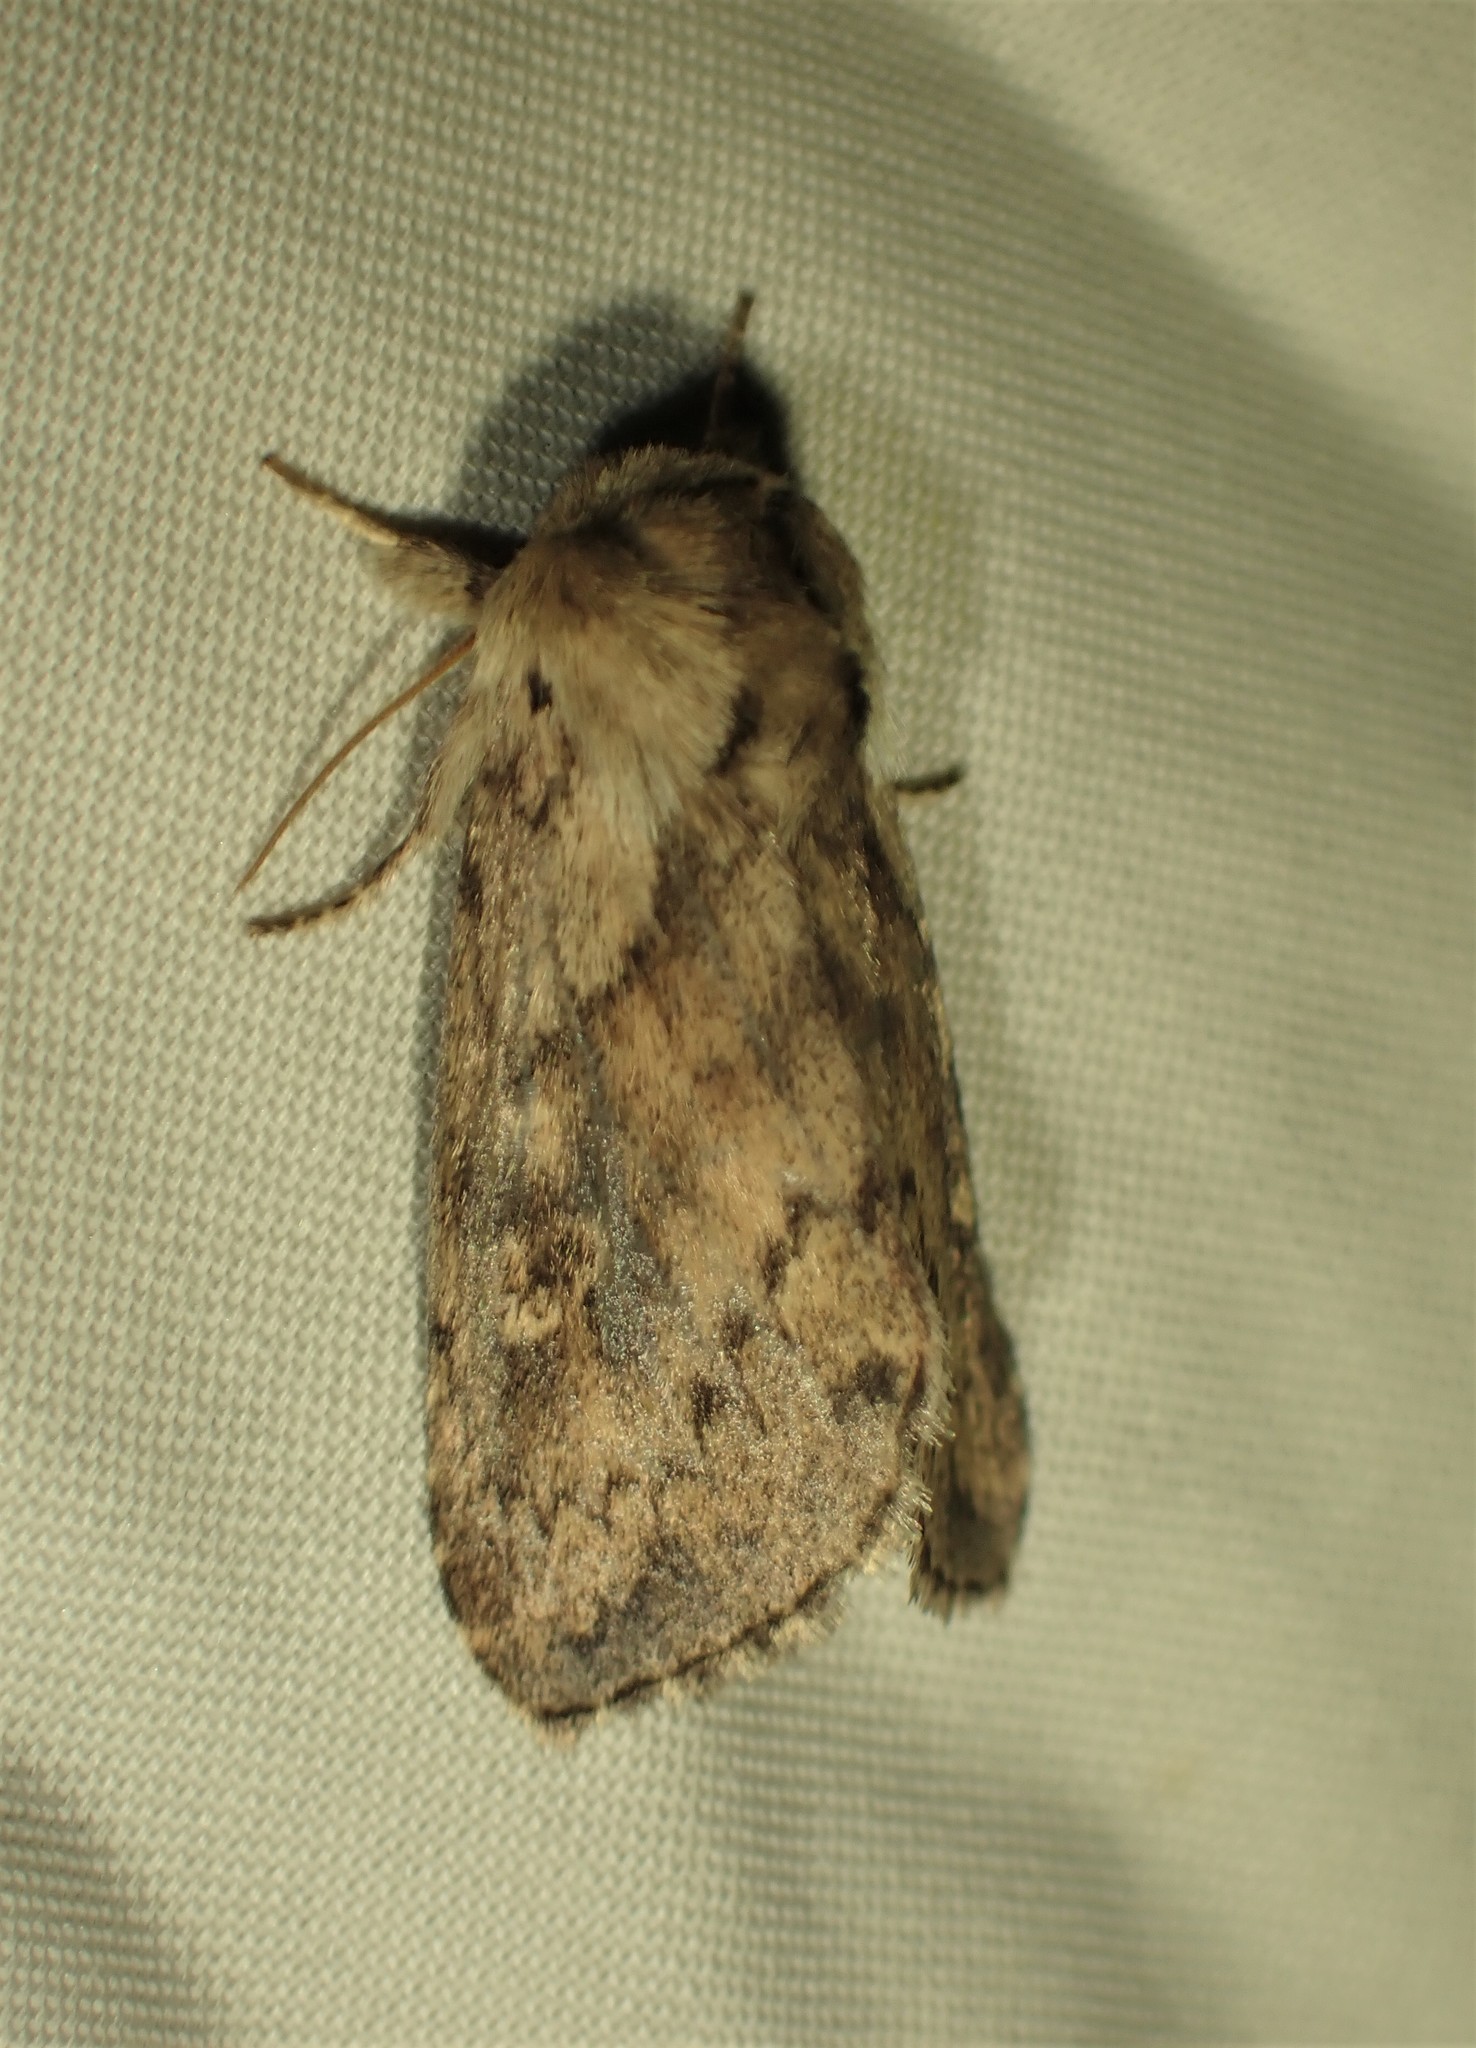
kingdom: Animalia
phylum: Arthropoda
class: Insecta
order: Lepidoptera
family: Noctuidae
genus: Bellura
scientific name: Bellura vulnifica
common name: Black-tailed diver moth
